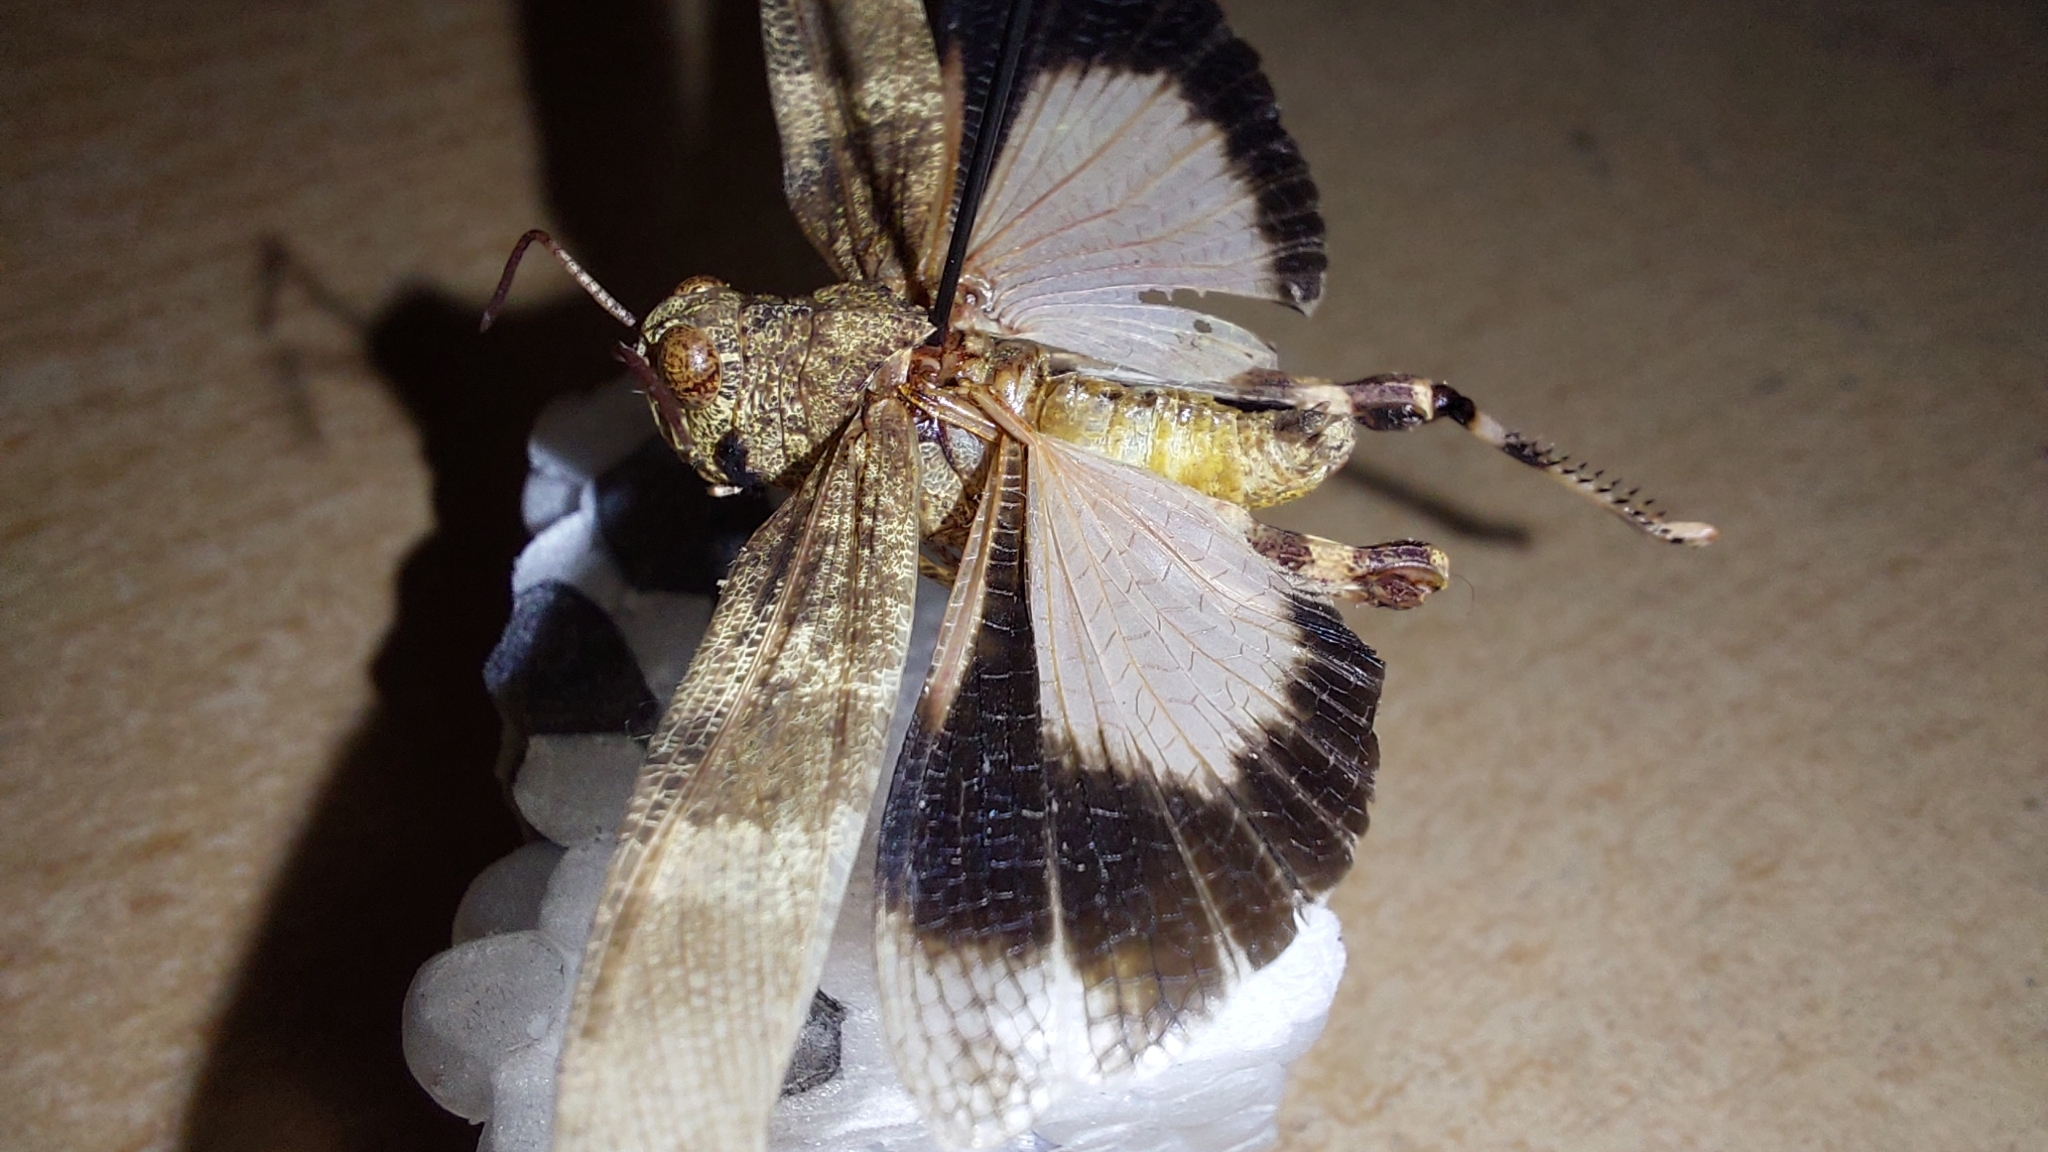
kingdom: Animalia
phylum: Arthropoda
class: Insecta
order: Orthoptera
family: Acrididae
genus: Oedipoda
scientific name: Oedipoda germanica
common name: Red band-winged grasshopper
